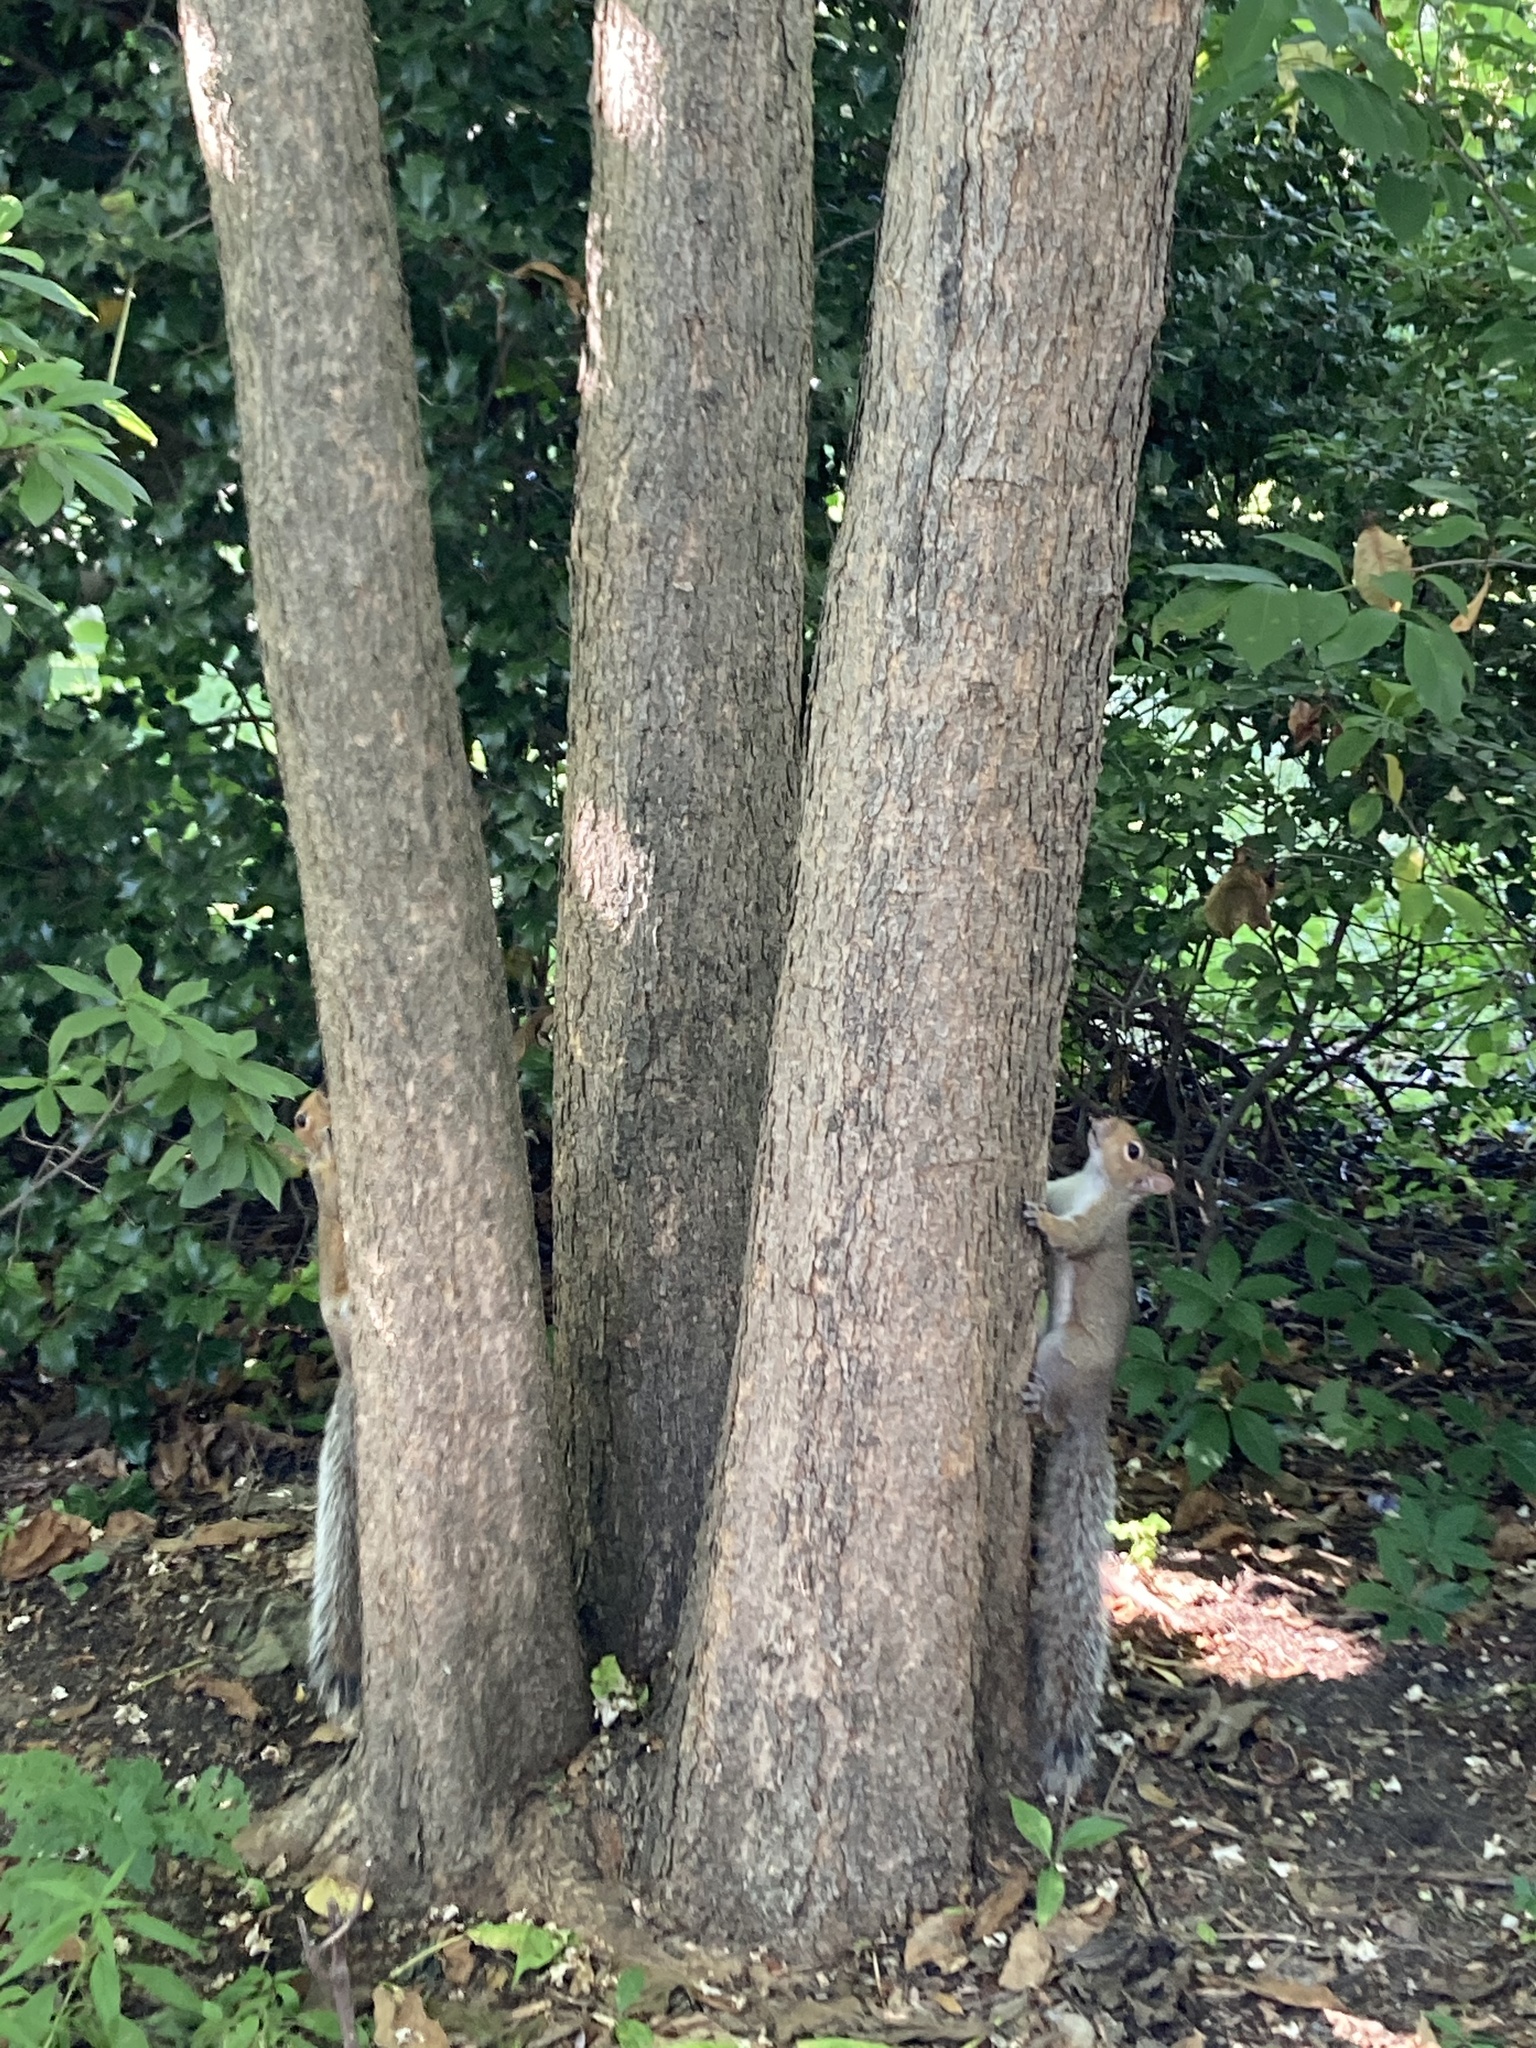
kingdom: Animalia
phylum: Chordata
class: Mammalia
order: Rodentia
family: Sciuridae
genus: Sciurus
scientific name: Sciurus carolinensis
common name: Eastern gray squirrel
